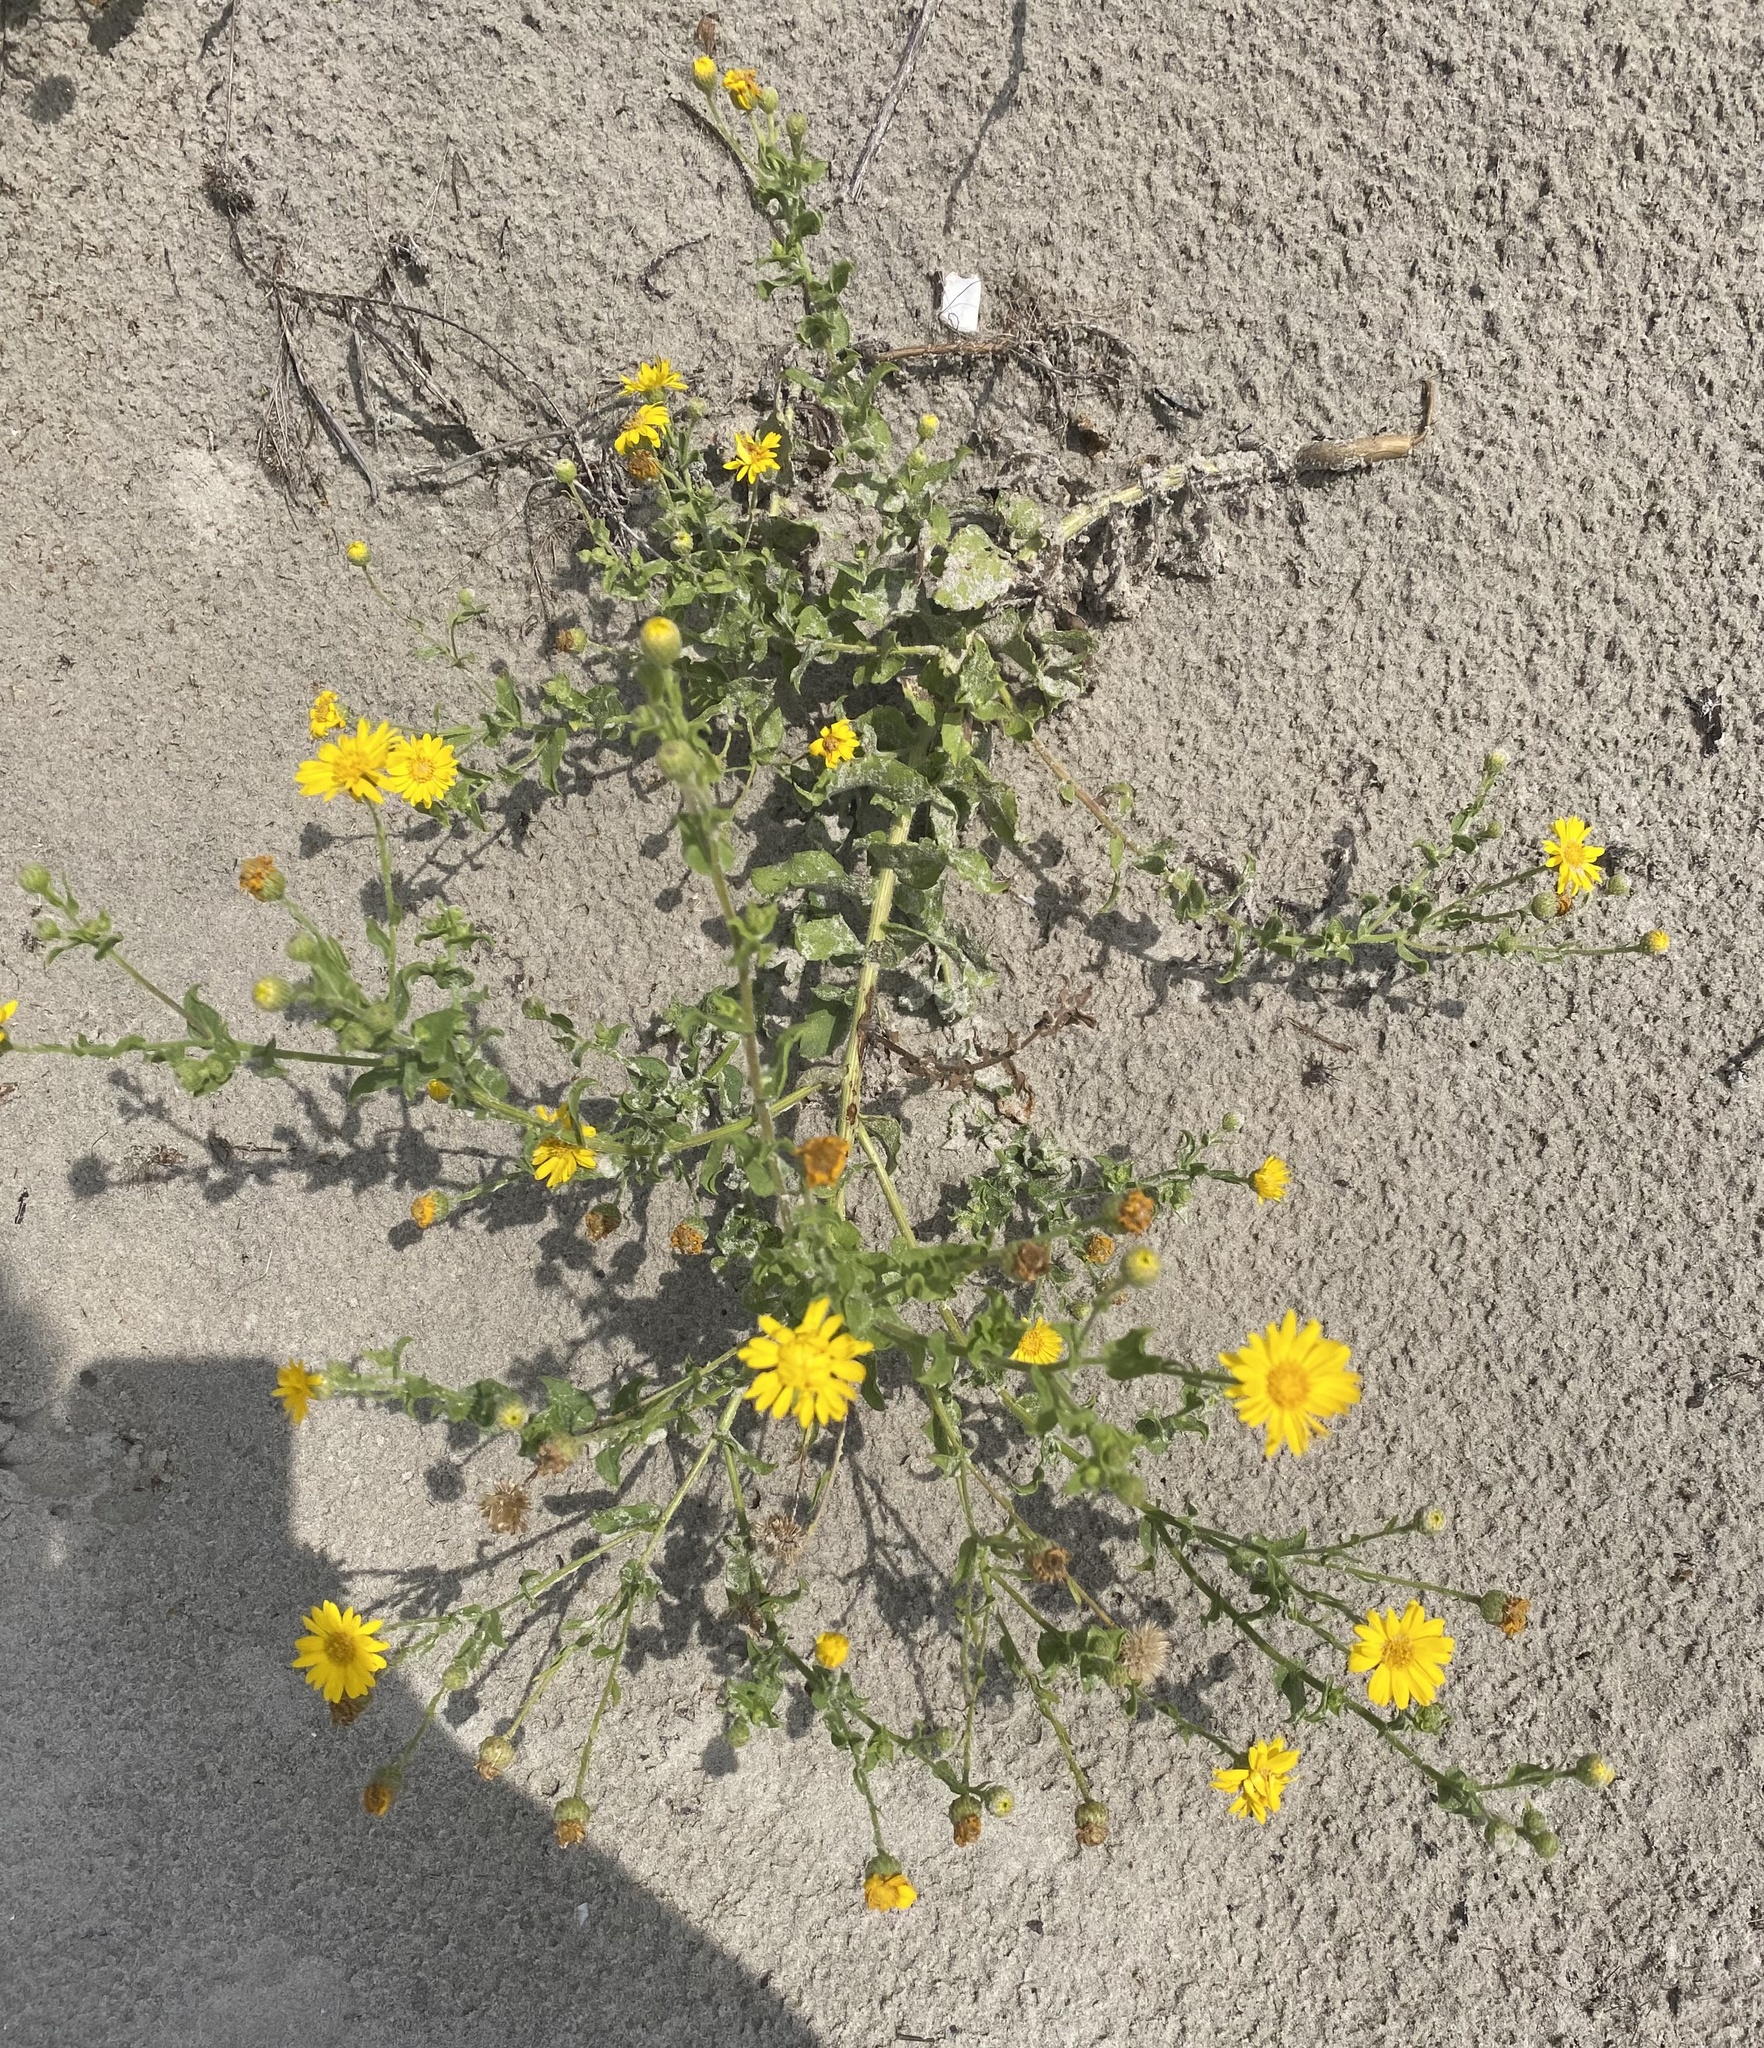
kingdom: Plantae
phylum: Tracheophyta
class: Magnoliopsida
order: Asterales
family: Asteraceae
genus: Heterotheca
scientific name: Heterotheca subaxillaris
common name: Camphorweed
